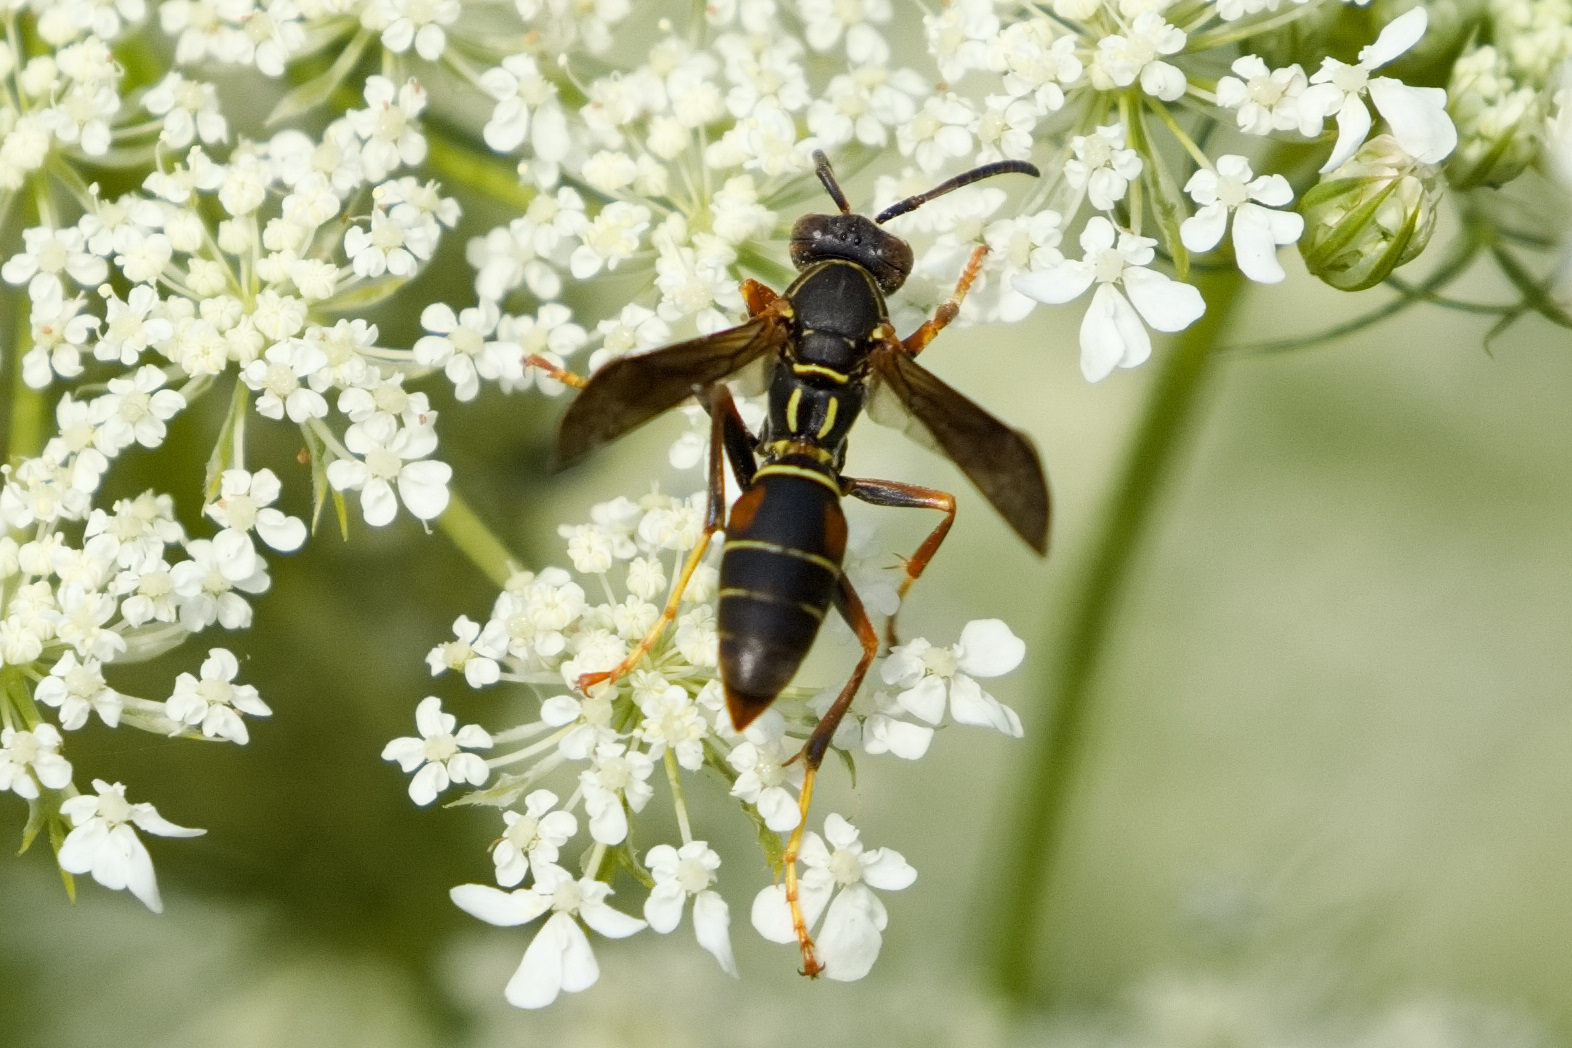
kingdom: Animalia
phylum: Arthropoda
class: Insecta
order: Hymenoptera
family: Eumenidae
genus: Polistes
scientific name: Polistes fuscatus
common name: Dark paper wasp
